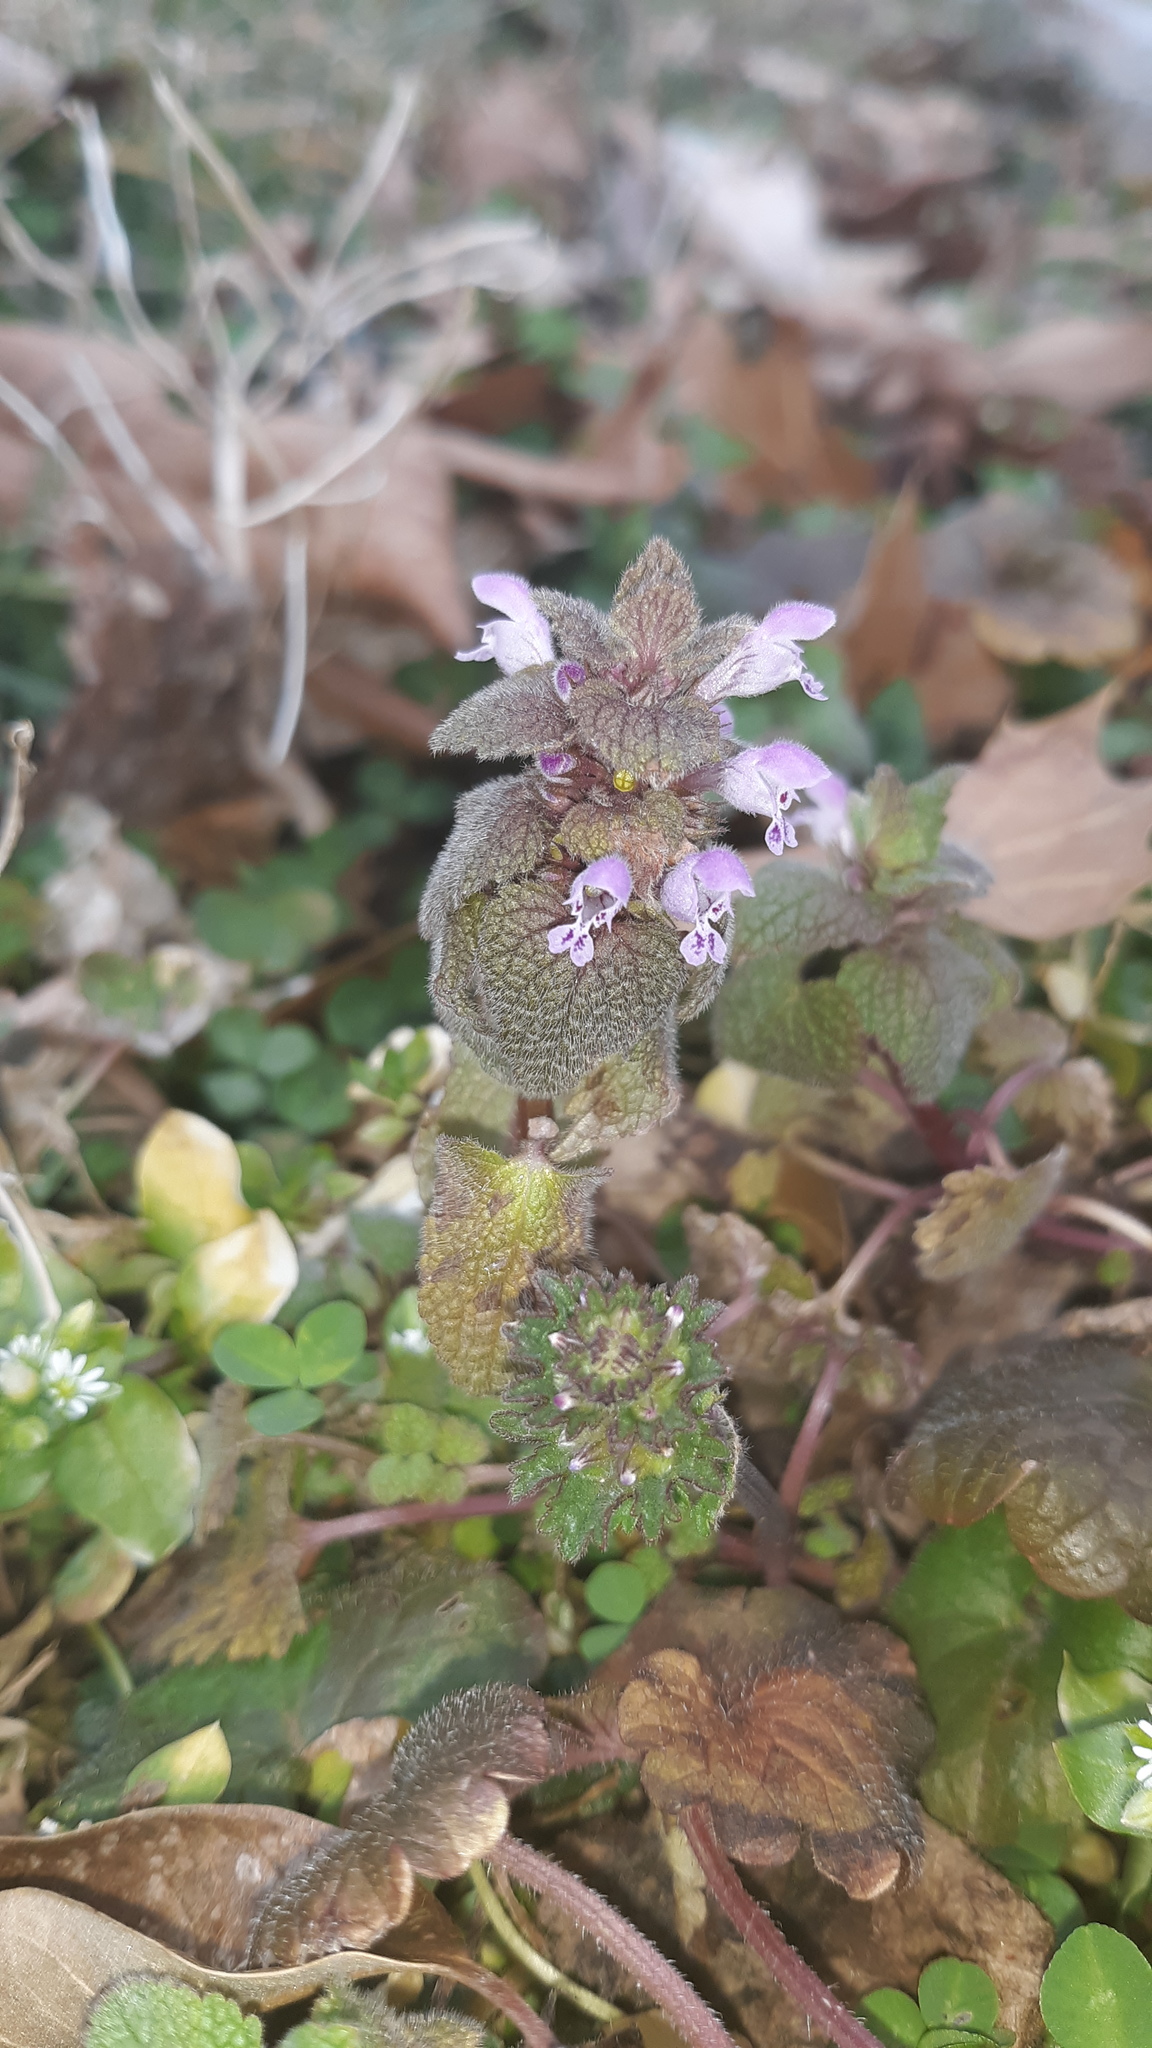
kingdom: Plantae
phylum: Tracheophyta
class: Magnoliopsida
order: Lamiales
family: Lamiaceae
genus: Lamium
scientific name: Lamium purpureum
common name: Red dead-nettle
